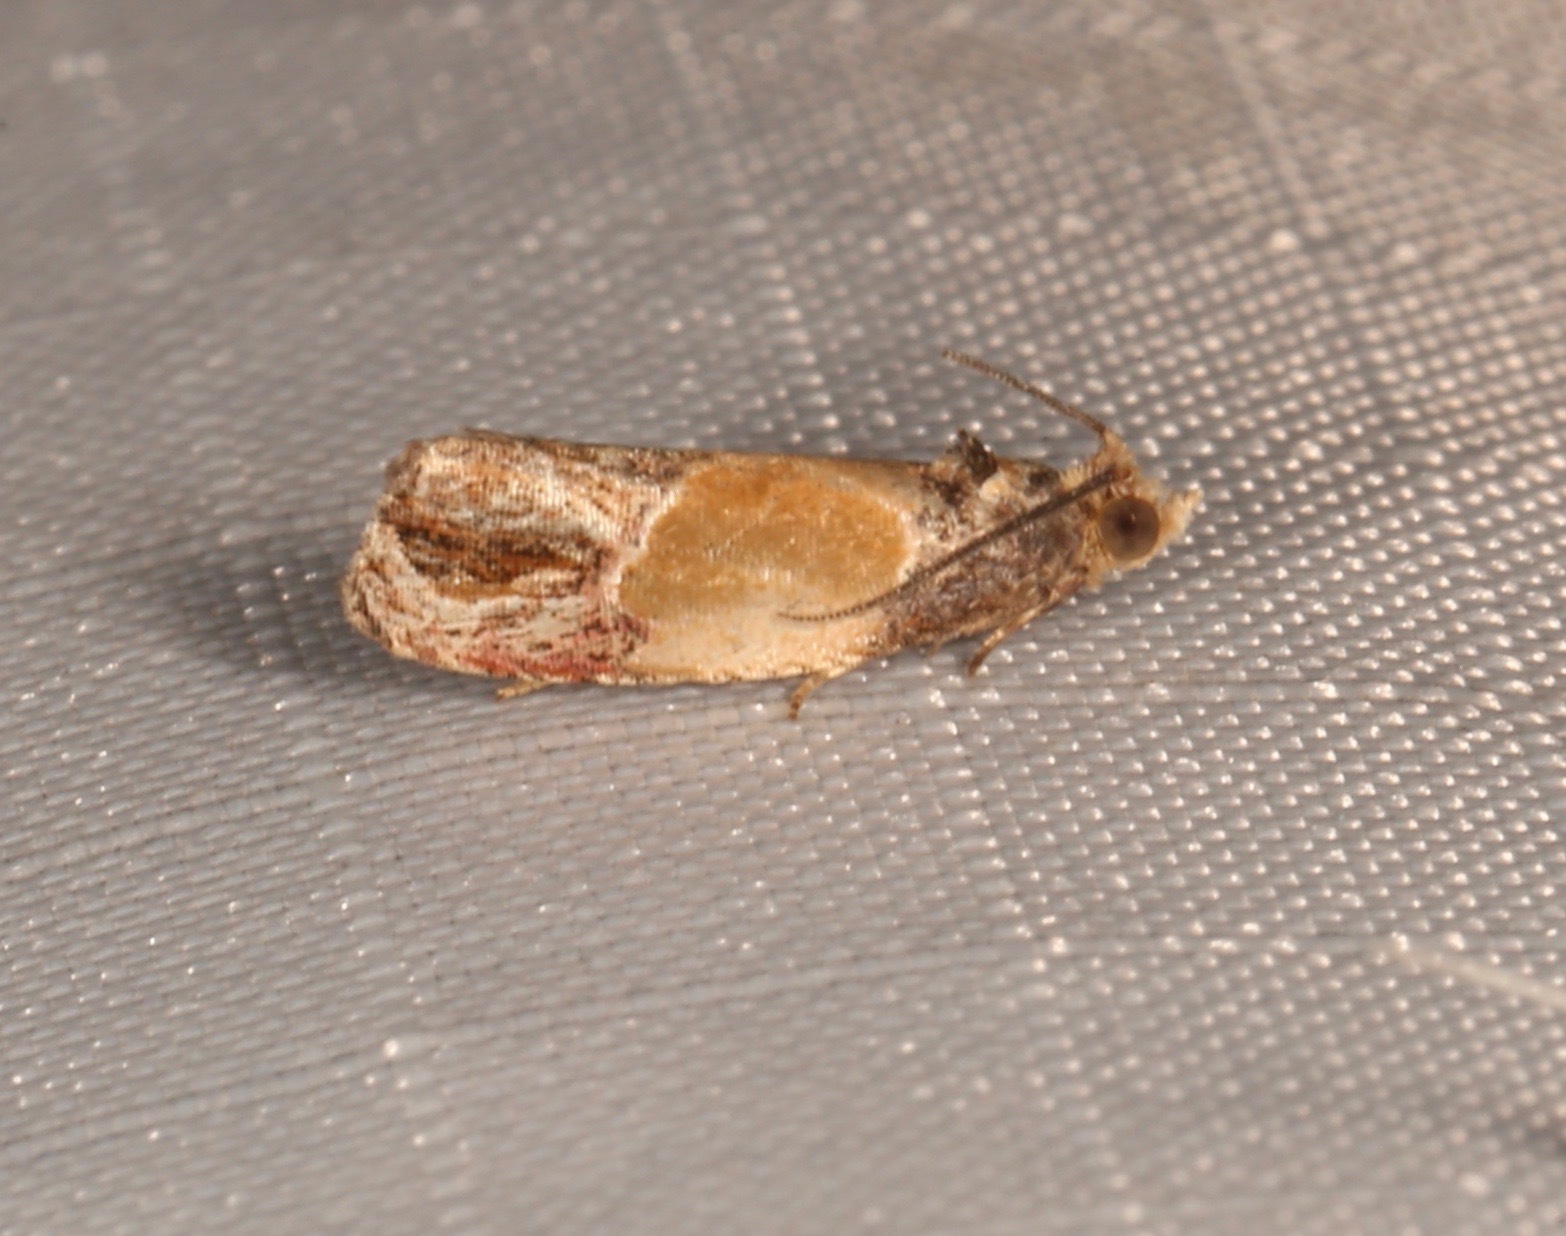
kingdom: Animalia
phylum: Arthropoda
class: Insecta
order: Lepidoptera
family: Tortricidae
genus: Eumarozia
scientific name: Eumarozia malachitana
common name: Sculptured moth
